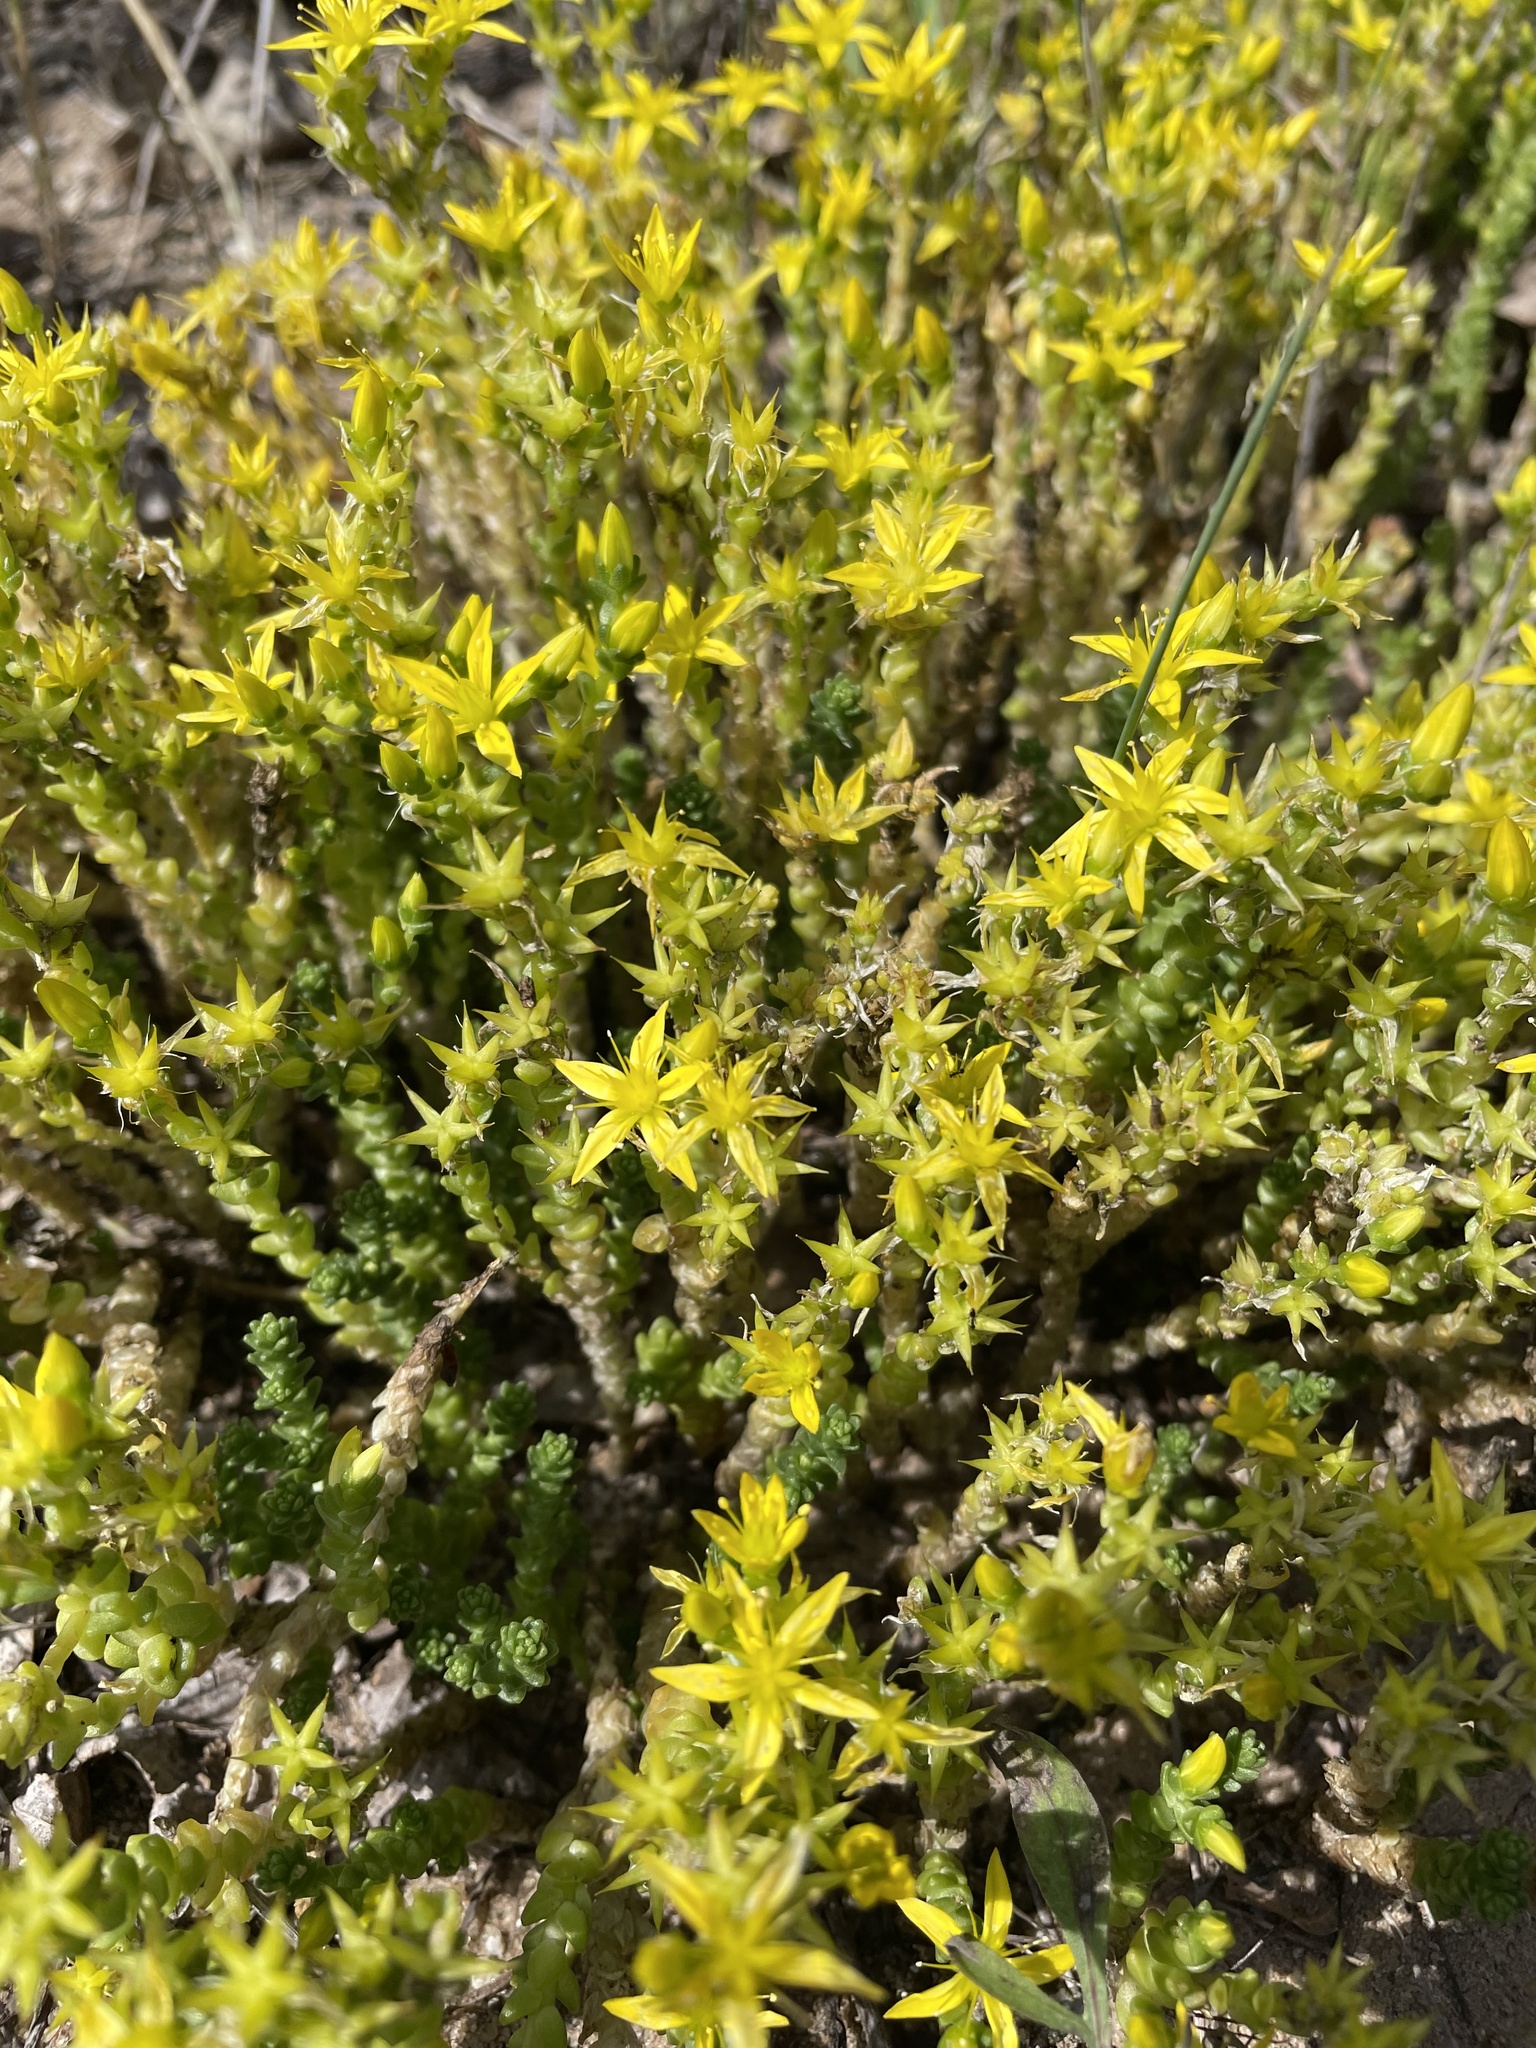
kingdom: Plantae
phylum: Tracheophyta
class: Magnoliopsida
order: Saxifragales
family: Crassulaceae
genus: Sedum
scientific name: Sedum acre
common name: Biting stonecrop
